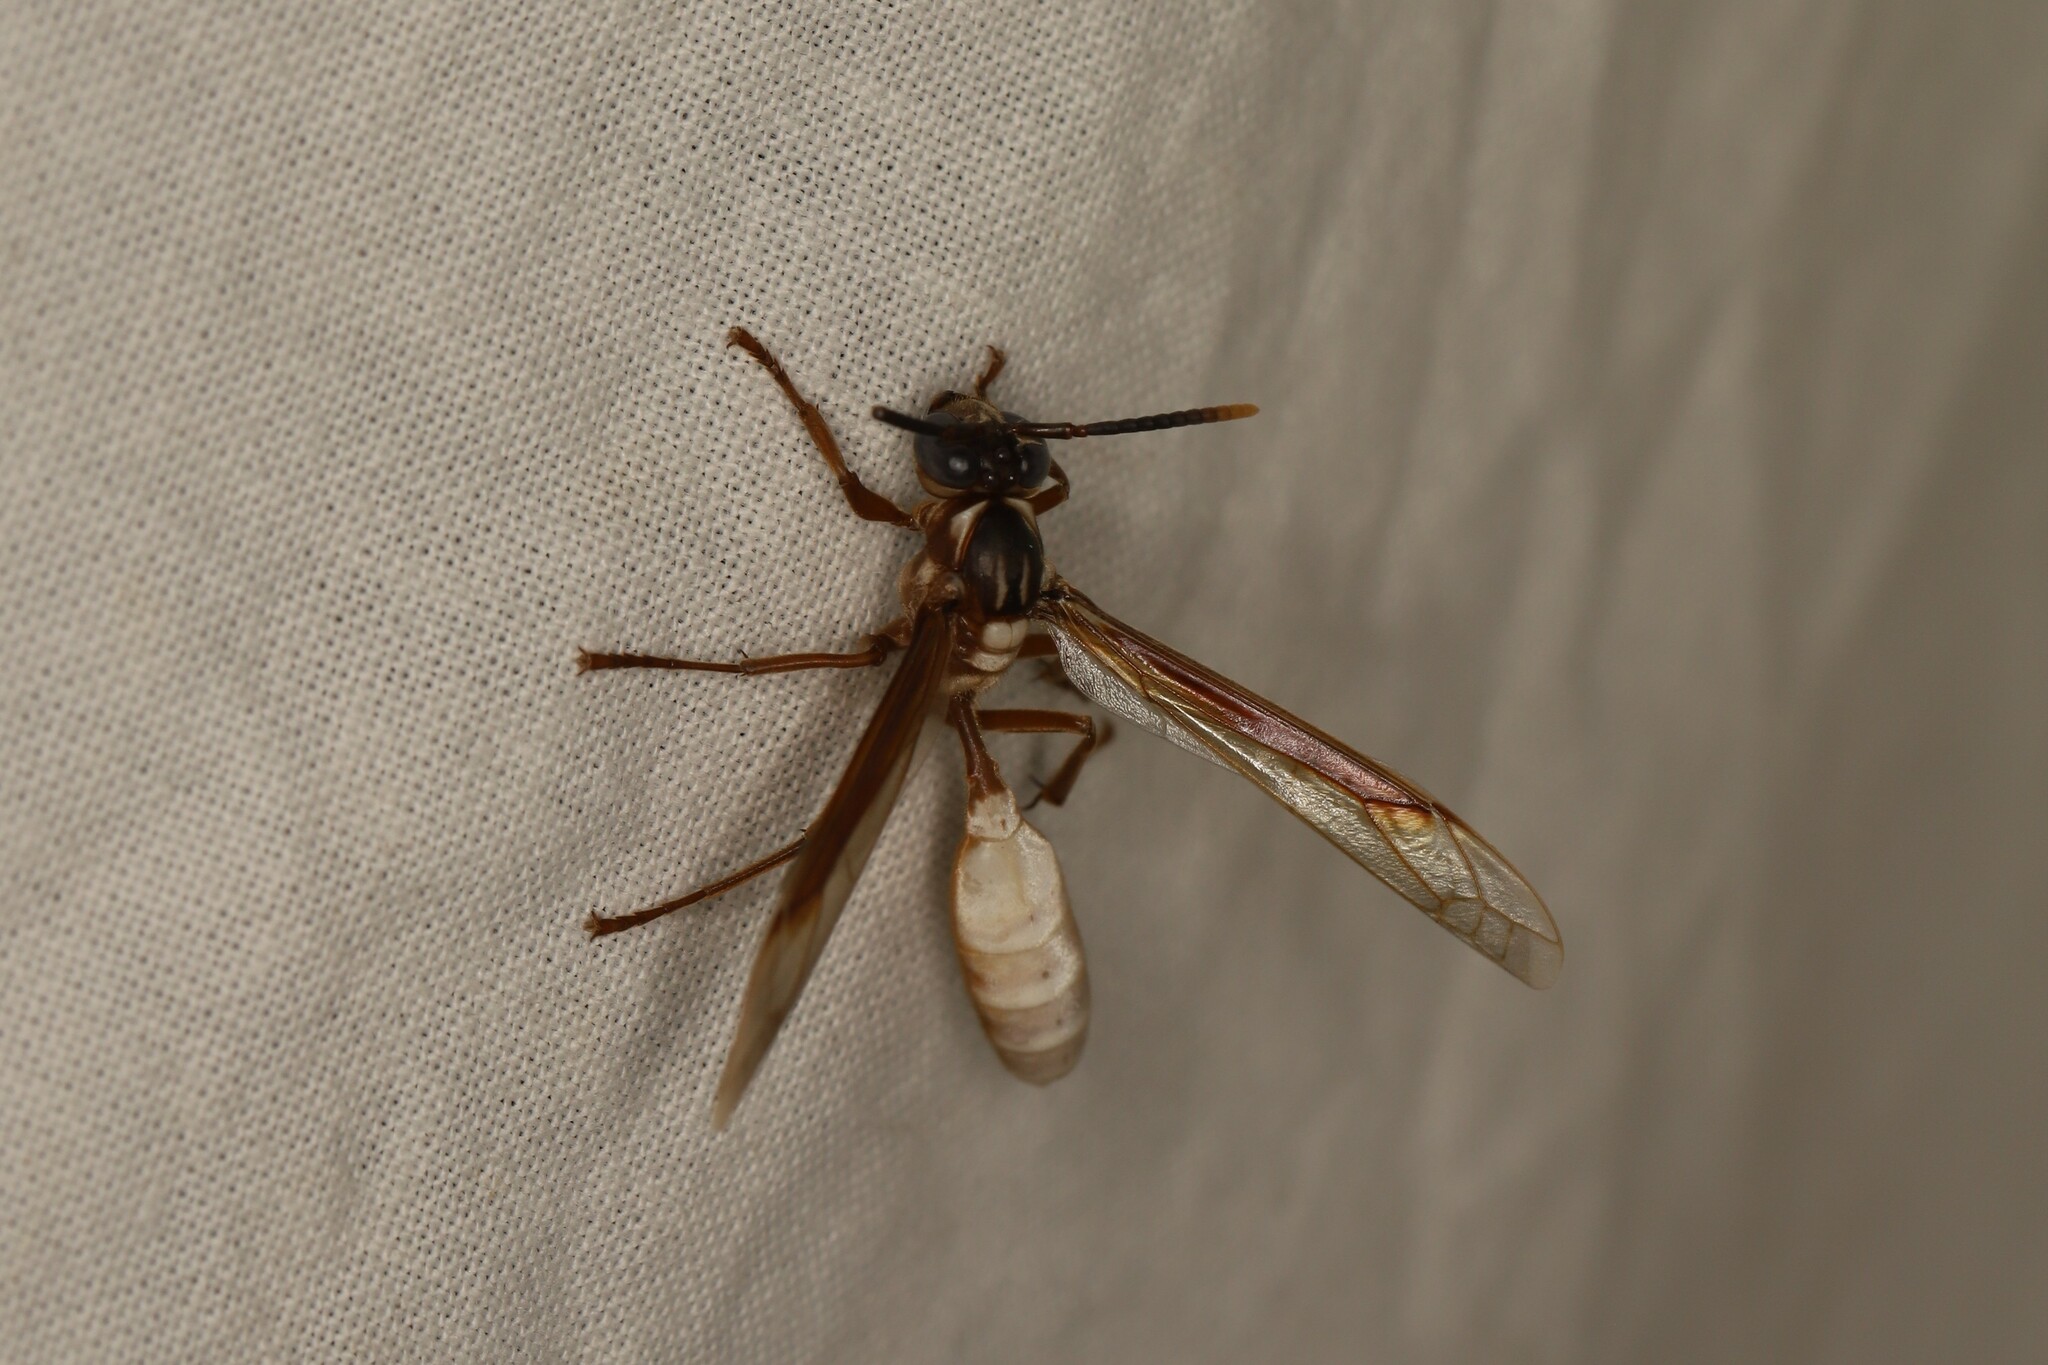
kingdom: Animalia
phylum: Arthropoda
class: Insecta
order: Hymenoptera
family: Vespidae
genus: Apoica
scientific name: Apoica pallens
